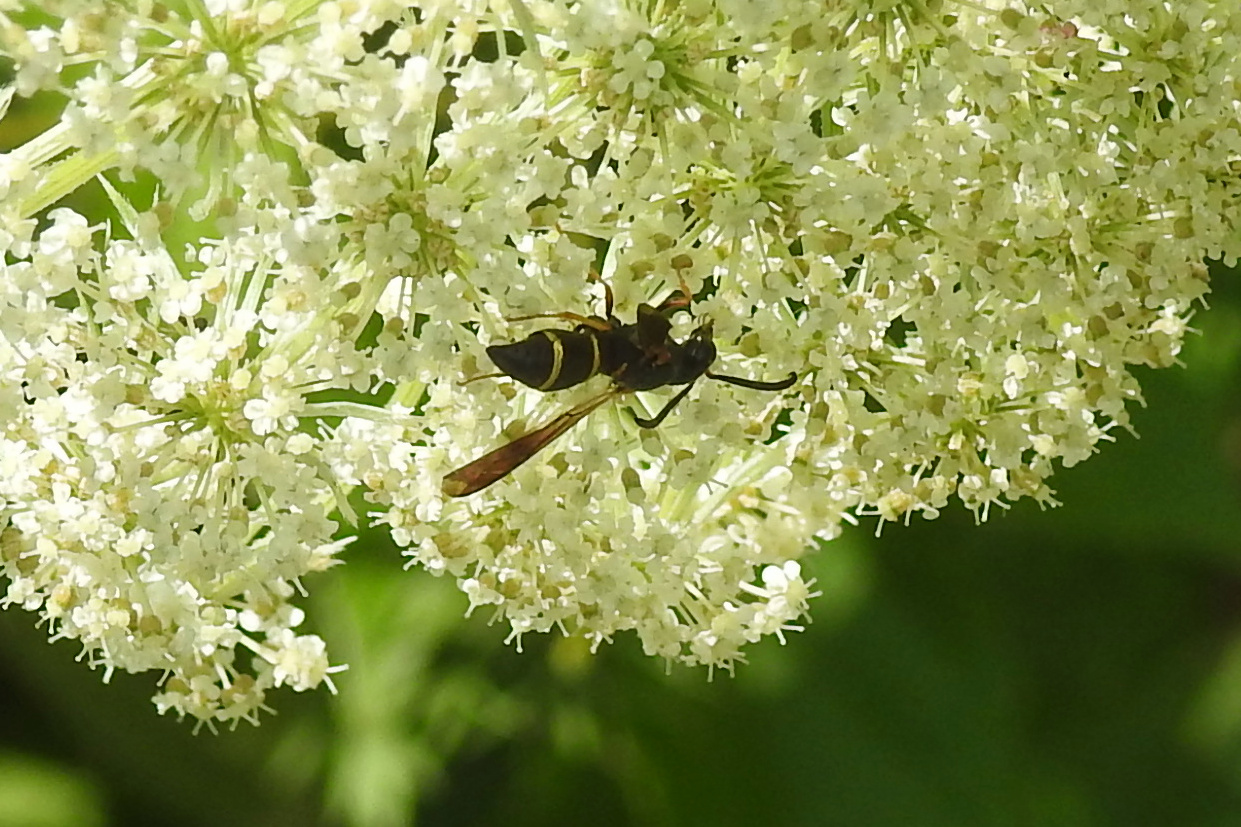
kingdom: Animalia
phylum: Arthropoda
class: Insecta
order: Hymenoptera
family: Eumenidae
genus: Parancistrocerus
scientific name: Parancistrocerus
